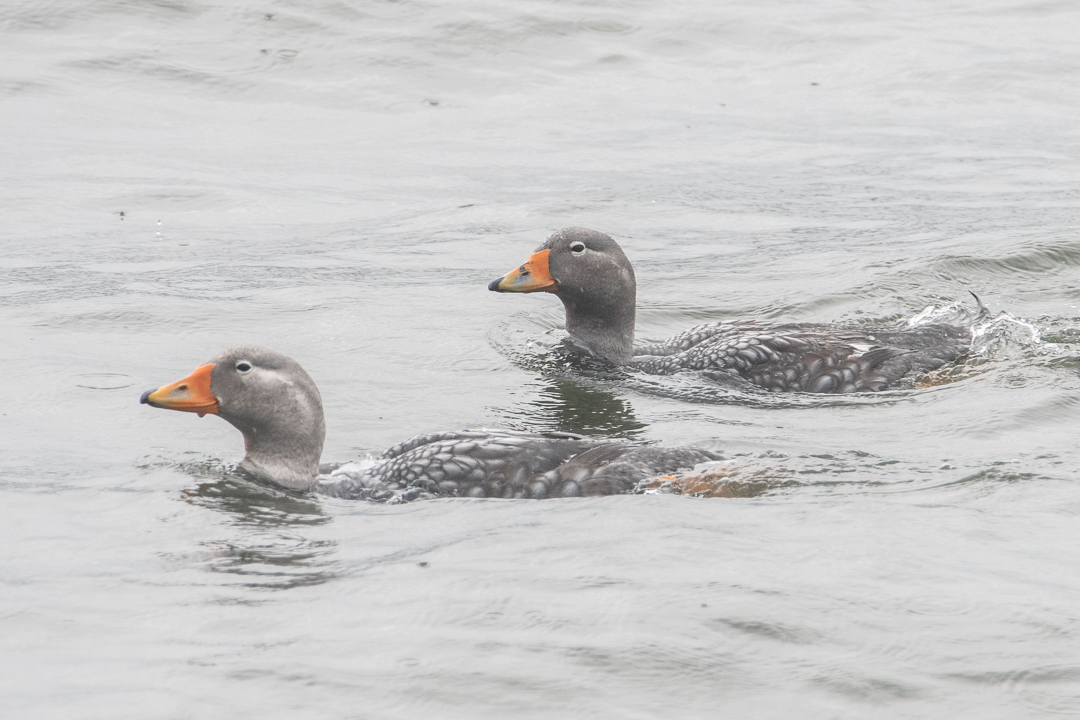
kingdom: Animalia
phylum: Chordata
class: Aves
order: Anseriformes
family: Anatidae
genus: Tachyeres
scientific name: Tachyeres pteneres
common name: Fuegian steamer duck
